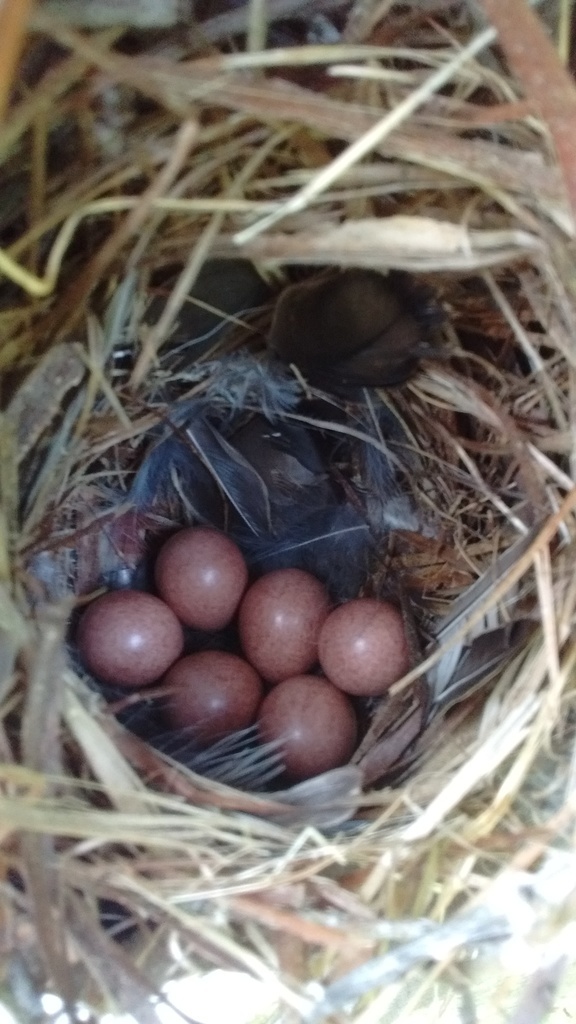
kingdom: Animalia
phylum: Chordata
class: Aves
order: Passeriformes
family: Troglodytidae
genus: Troglodytes
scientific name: Troglodytes aedon
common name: House wren
